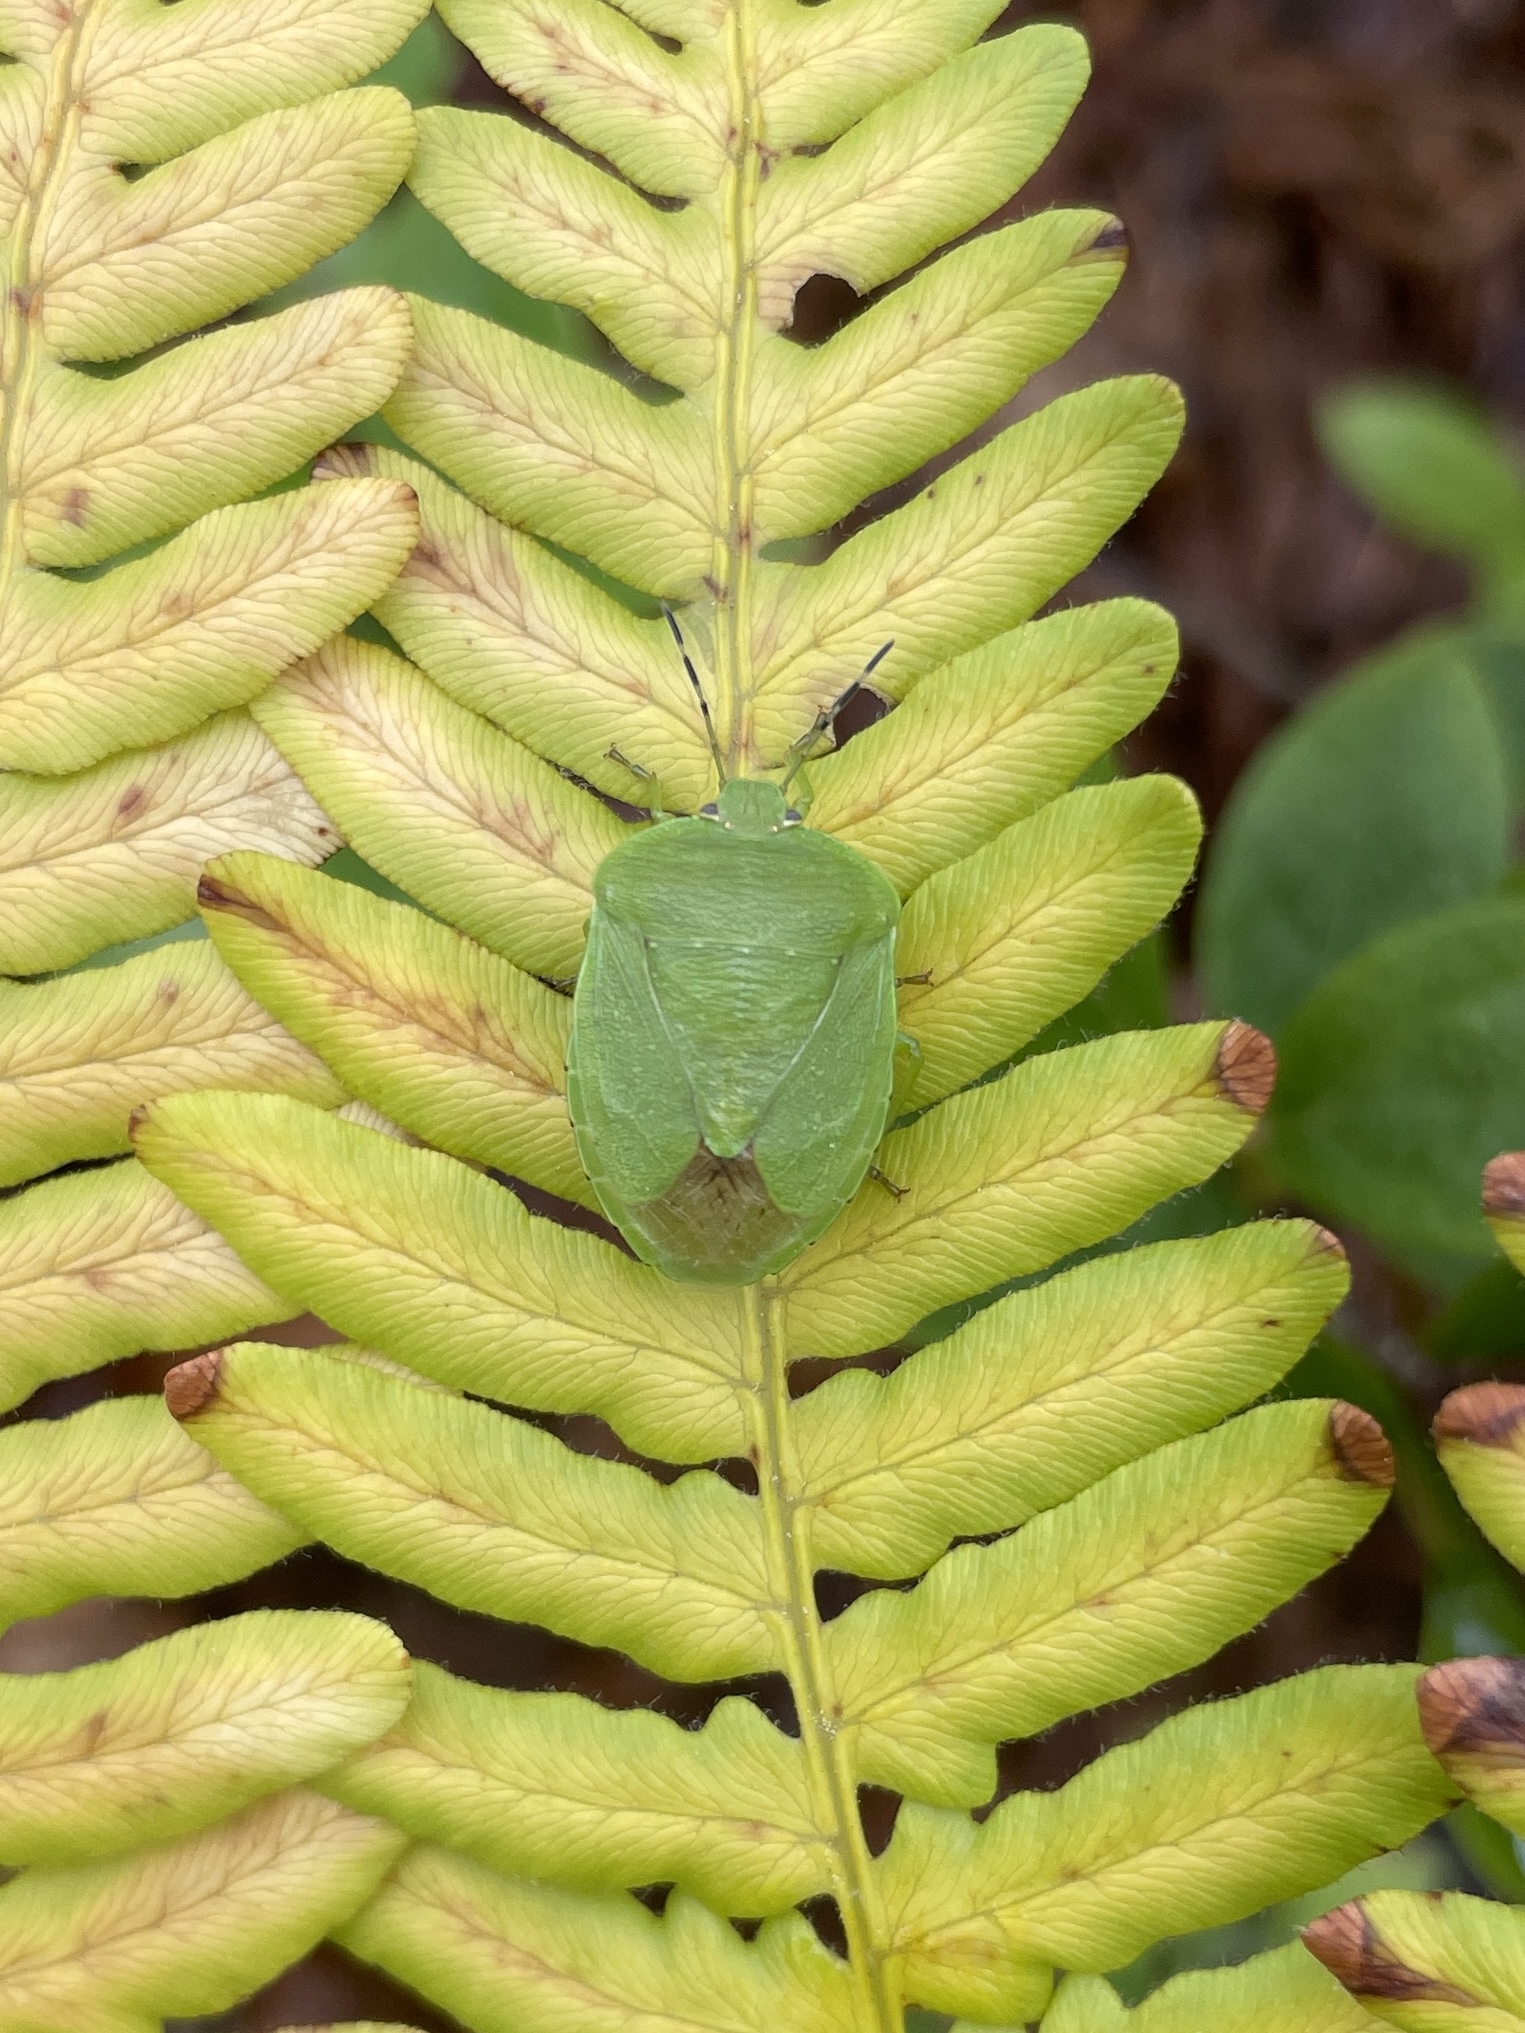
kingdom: Animalia
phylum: Arthropoda
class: Insecta
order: Hemiptera
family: Pentatomidae
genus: Chinavia
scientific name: Chinavia
